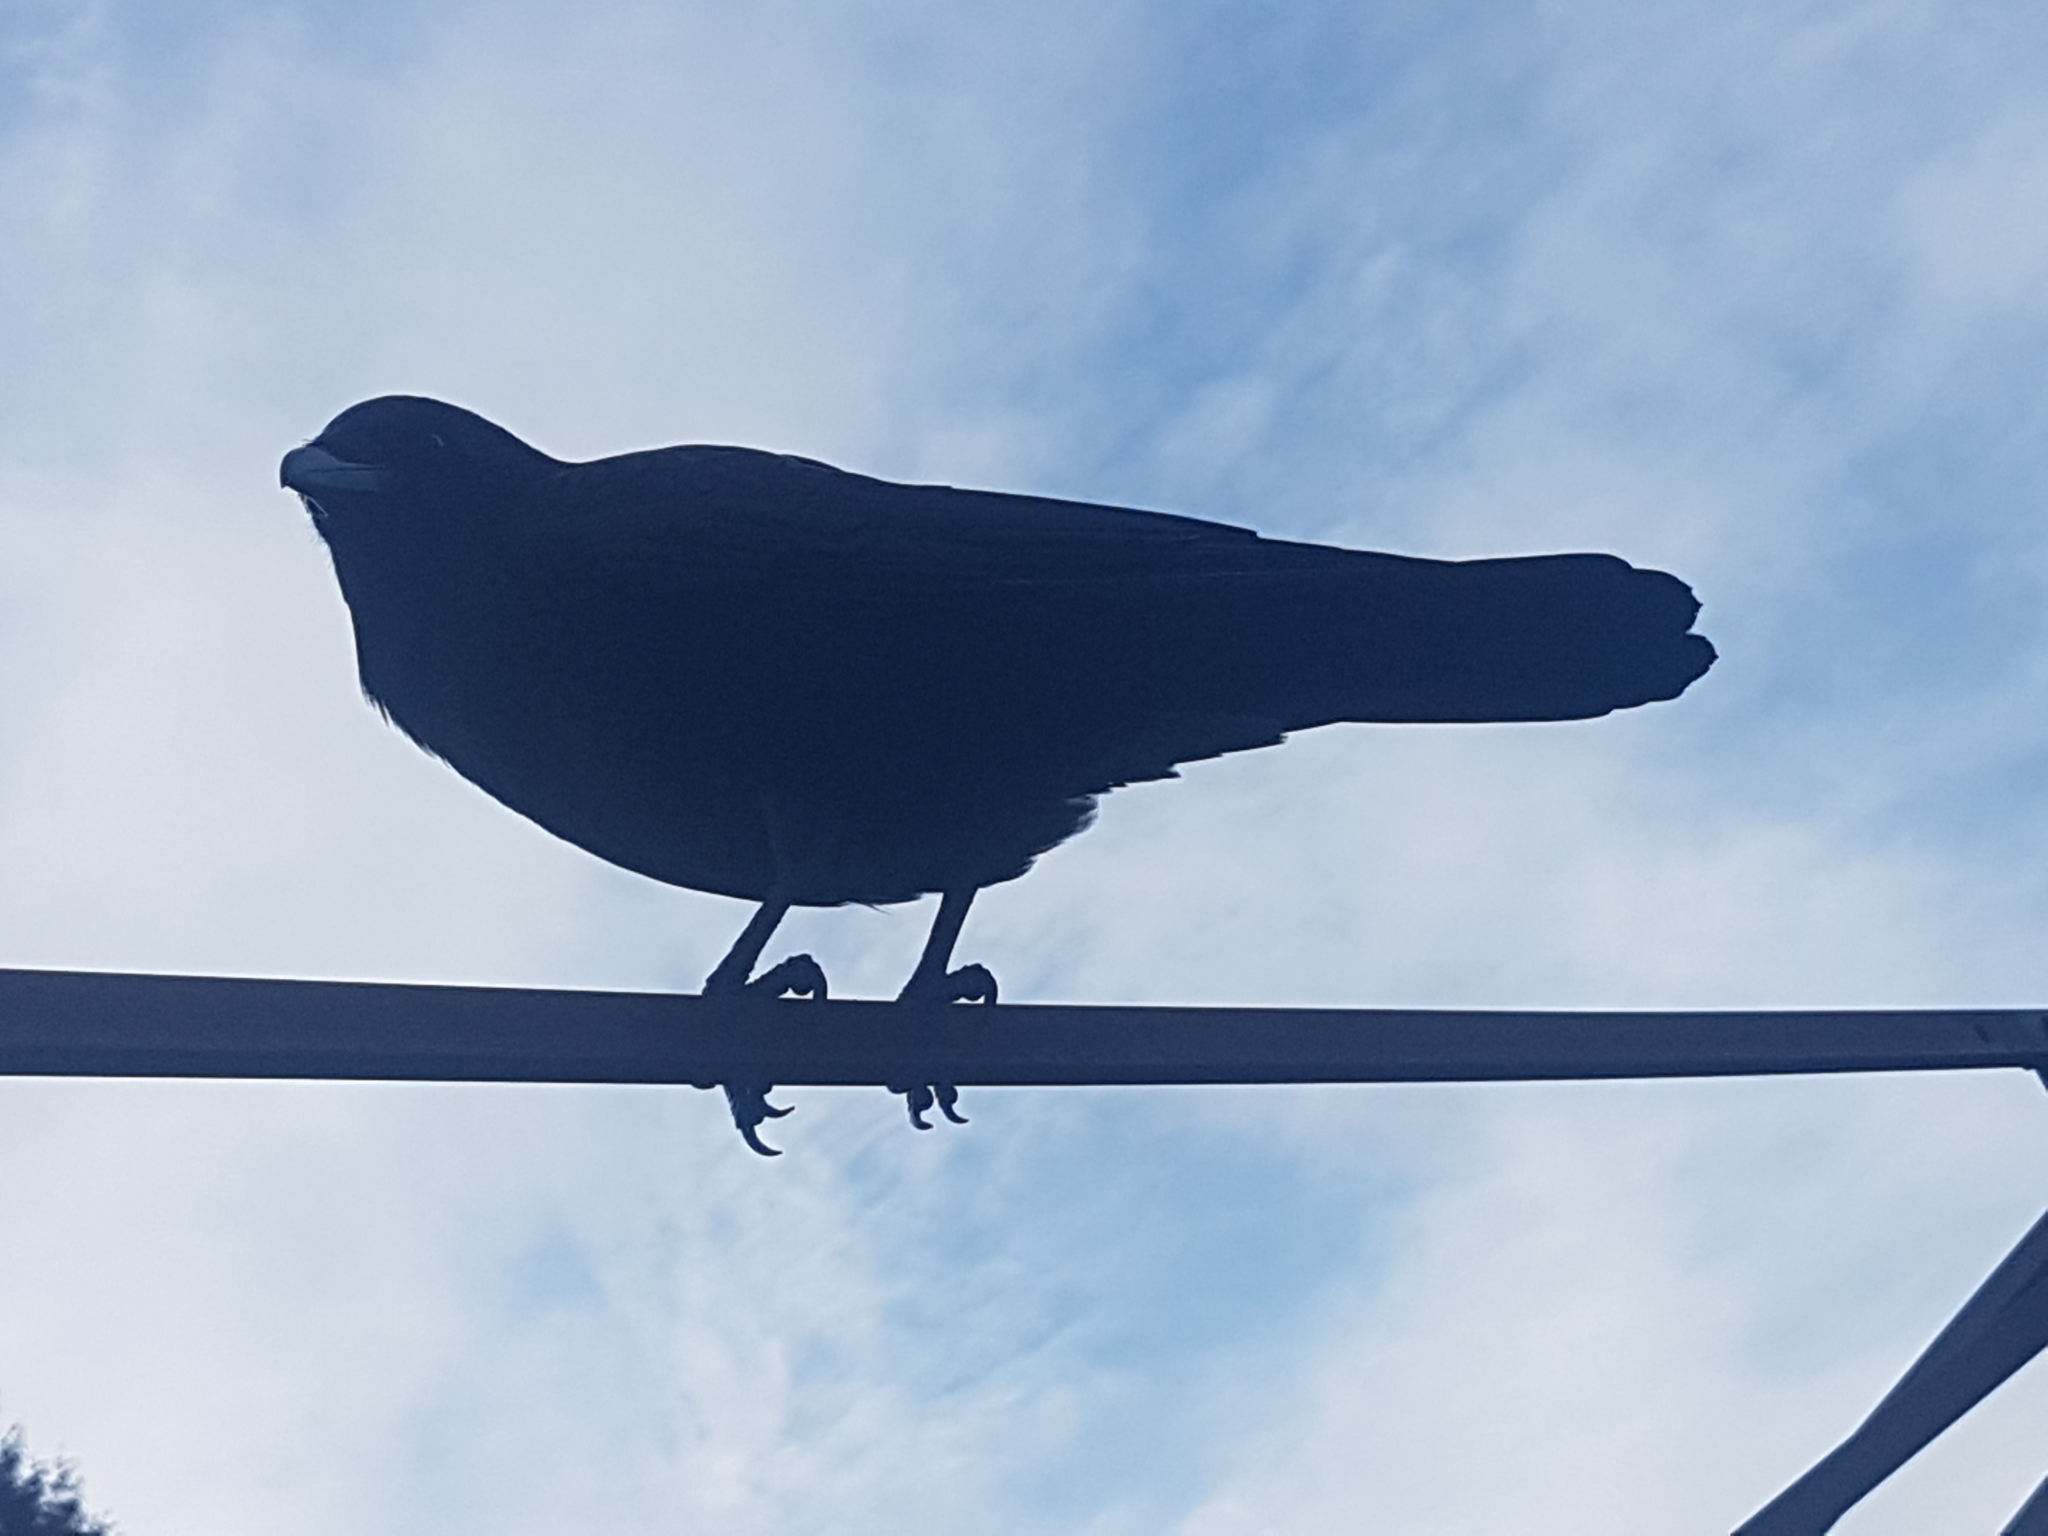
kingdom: Animalia
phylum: Chordata
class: Aves
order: Passeriformes
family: Corvidae
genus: Corvus
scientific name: Corvus brachyrhynchos
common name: American crow
